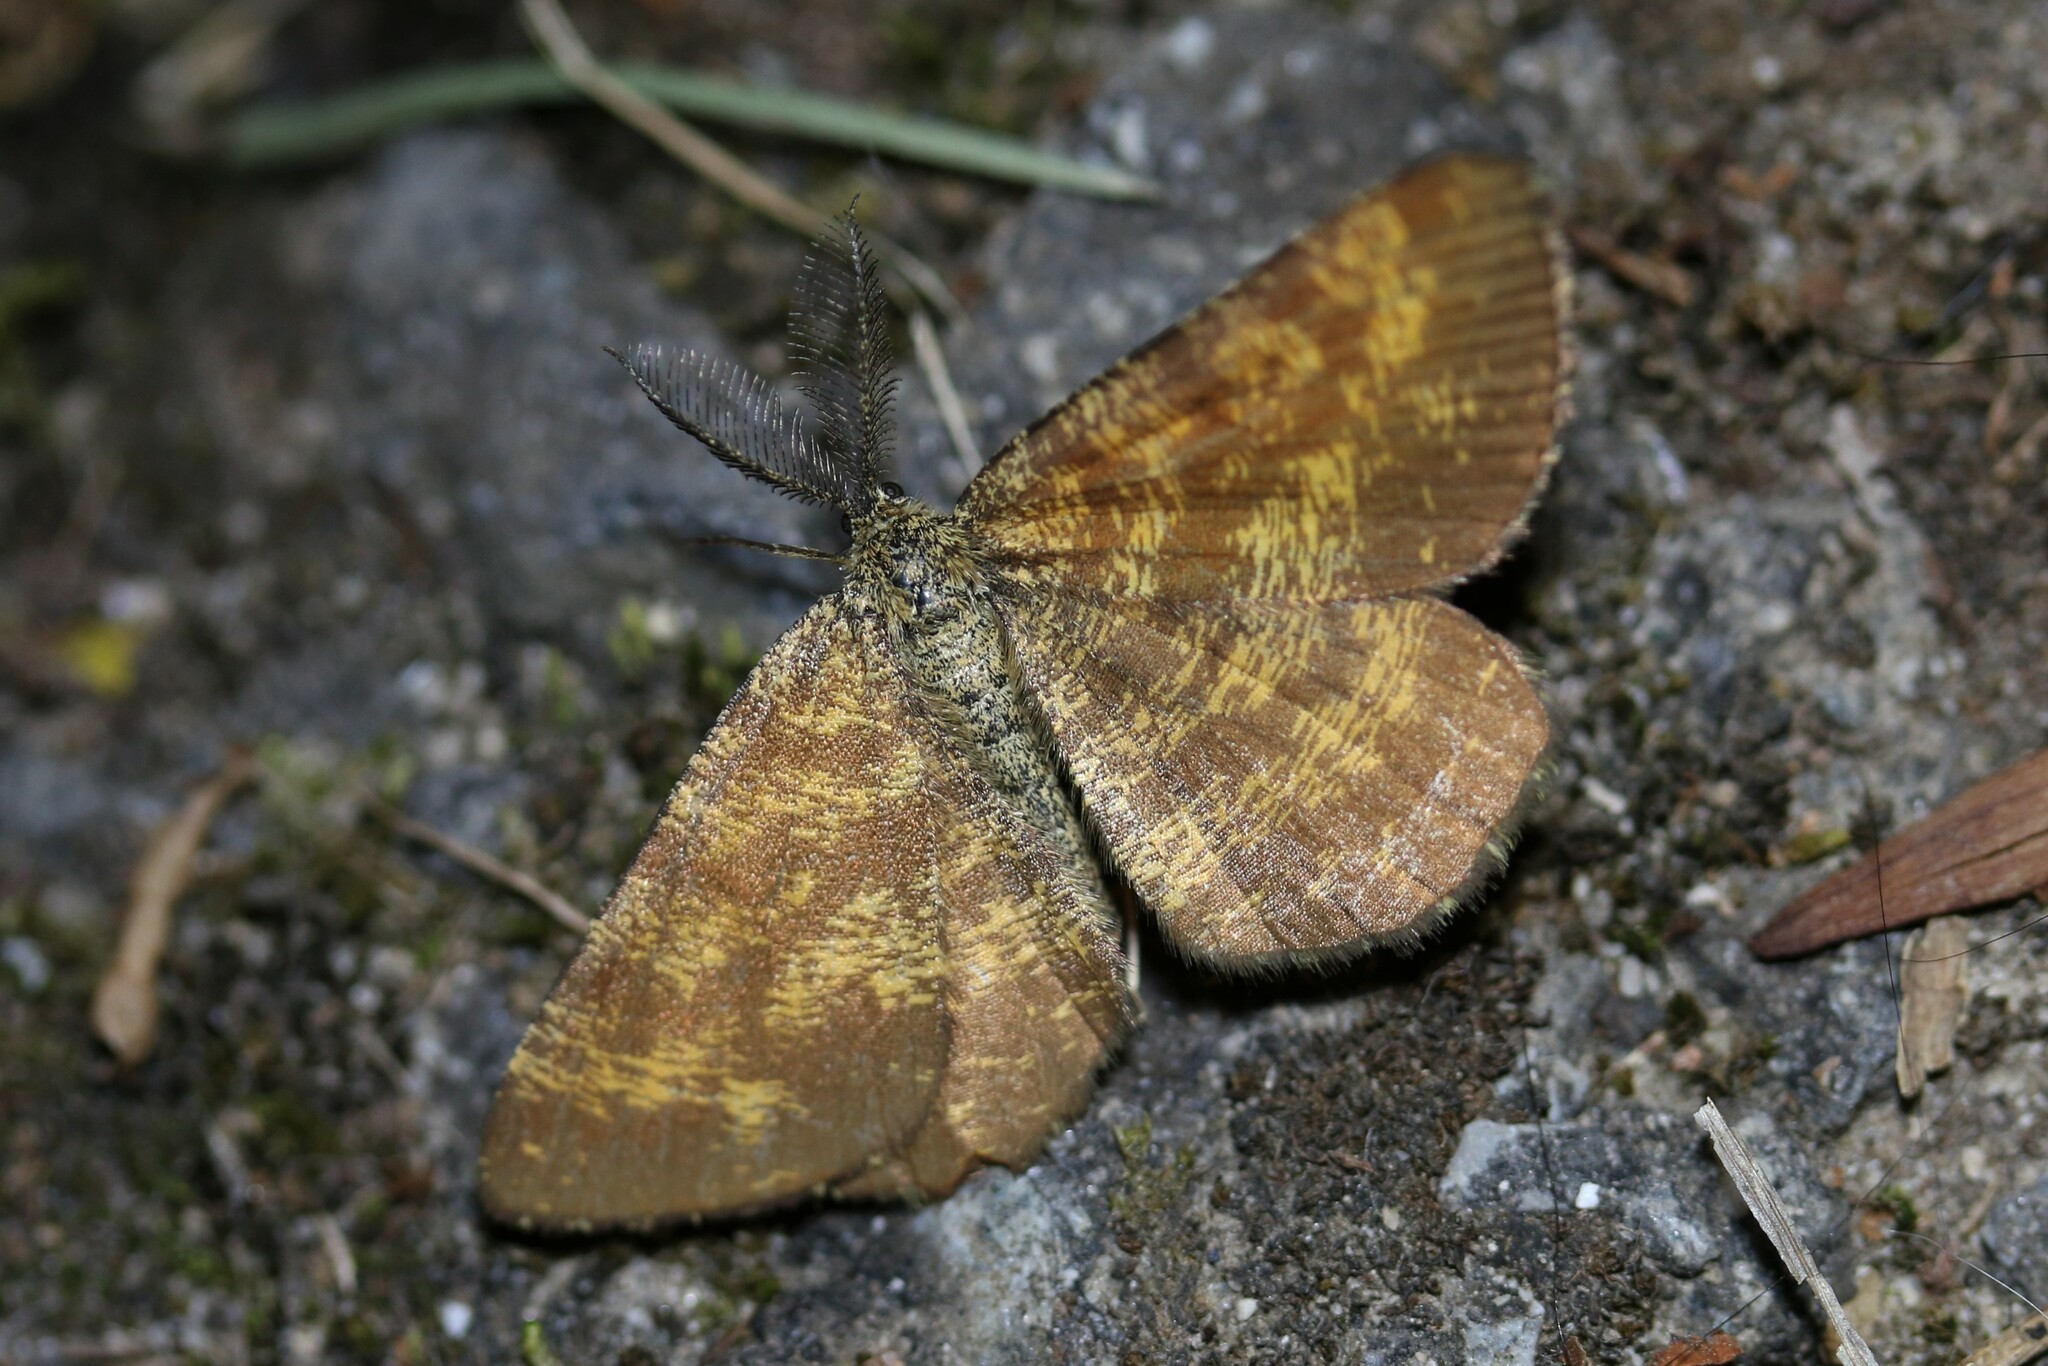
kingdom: Animalia
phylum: Arthropoda
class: Insecta
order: Lepidoptera
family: Geometridae
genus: Ematurga
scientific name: Ematurga atomaria
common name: Common heath
